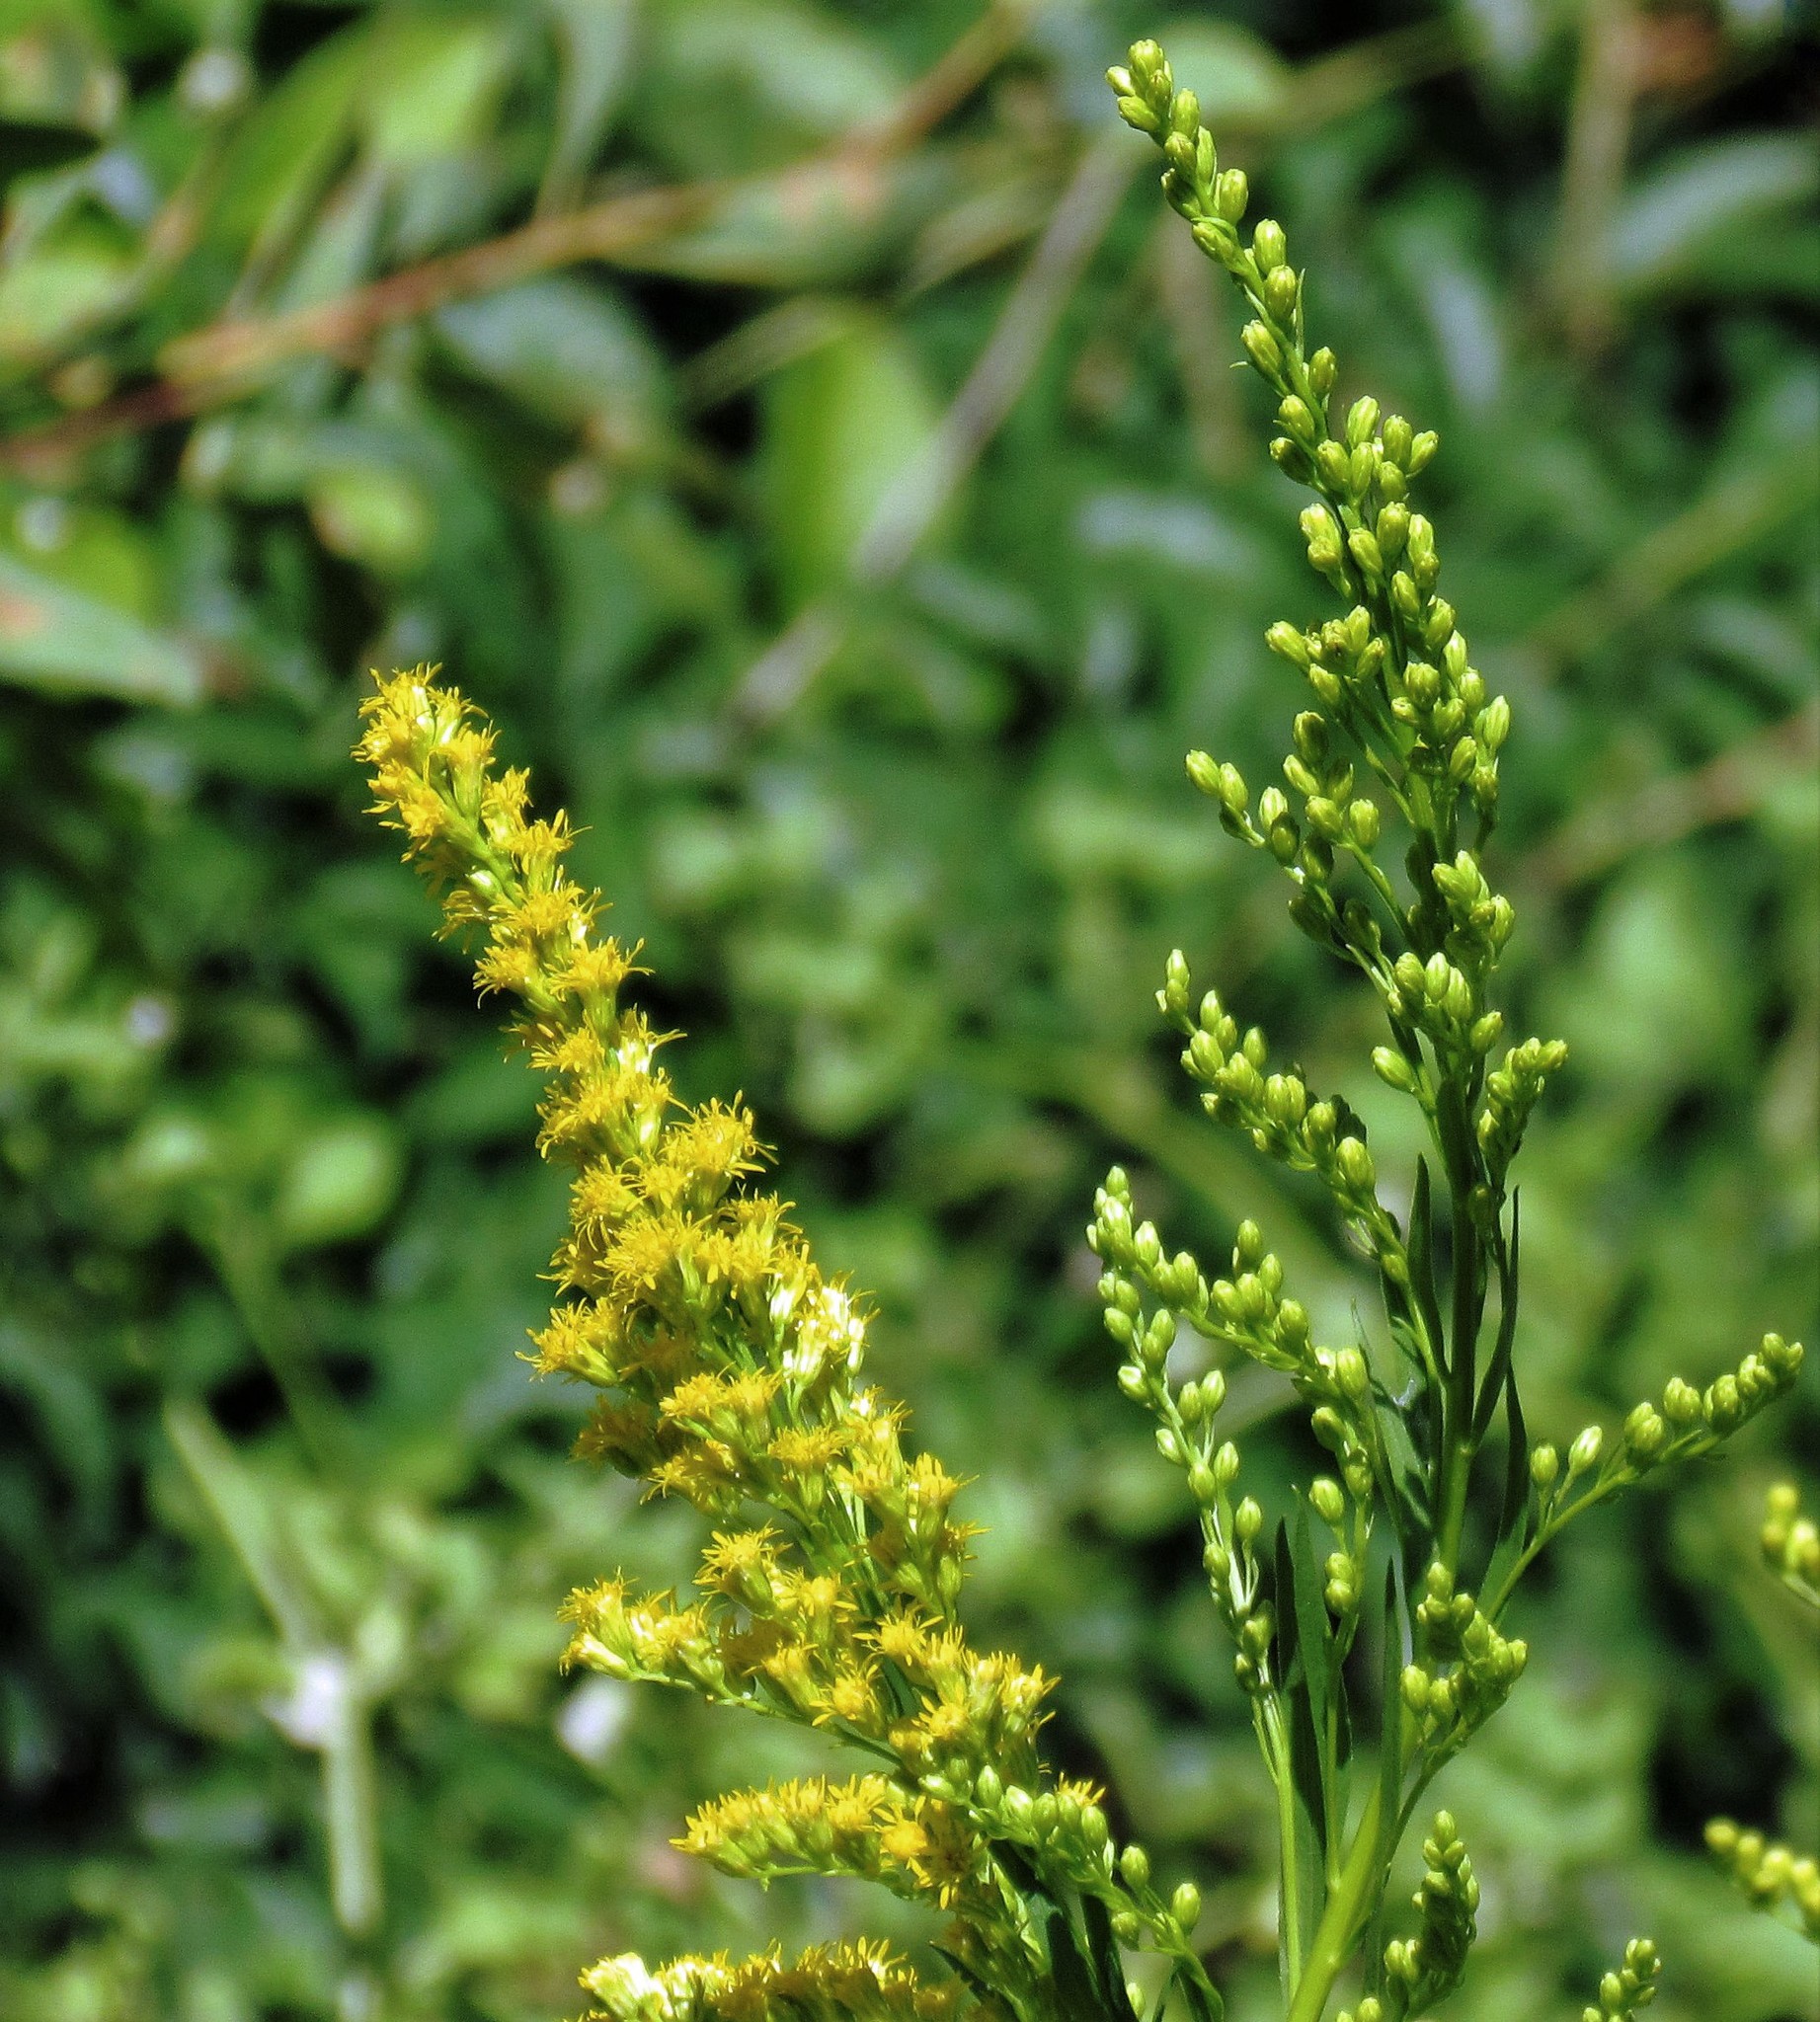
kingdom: Plantae
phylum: Tracheophyta
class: Magnoliopsida
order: Asterales
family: Asteraceae
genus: Solidago
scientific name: Solidago chilensis
